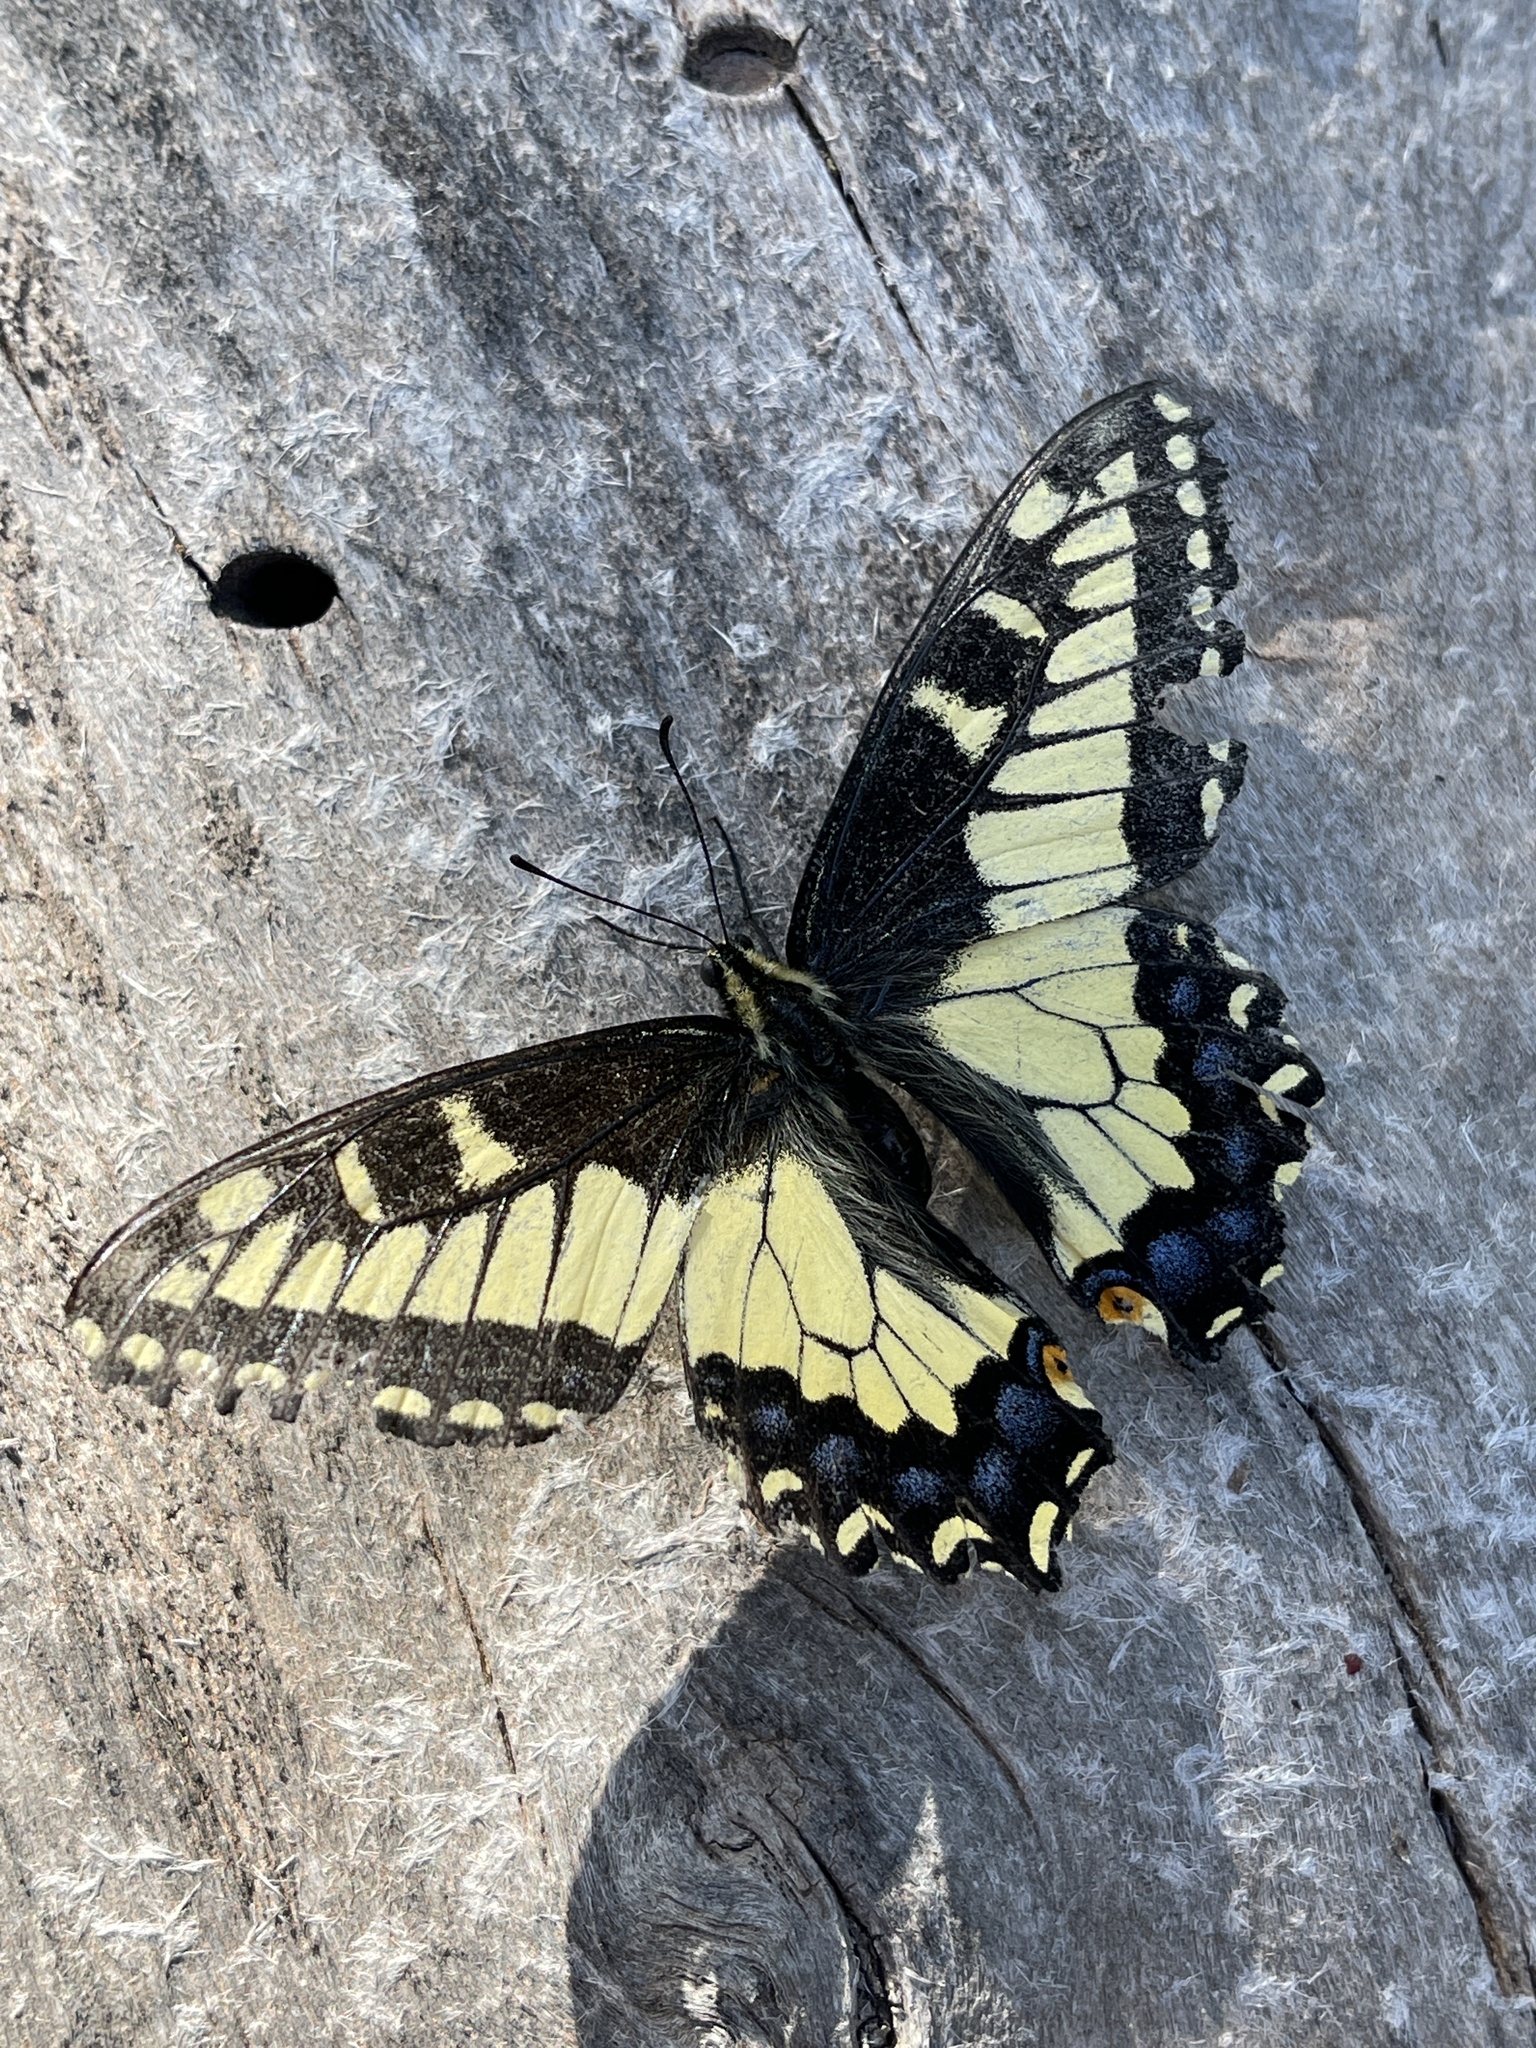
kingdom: Animalia
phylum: Arthropoda
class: Insecta
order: Lepidoptera
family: Papilionidae
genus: Papilio
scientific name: Papilio zelicaon
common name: Anise swallowtail
